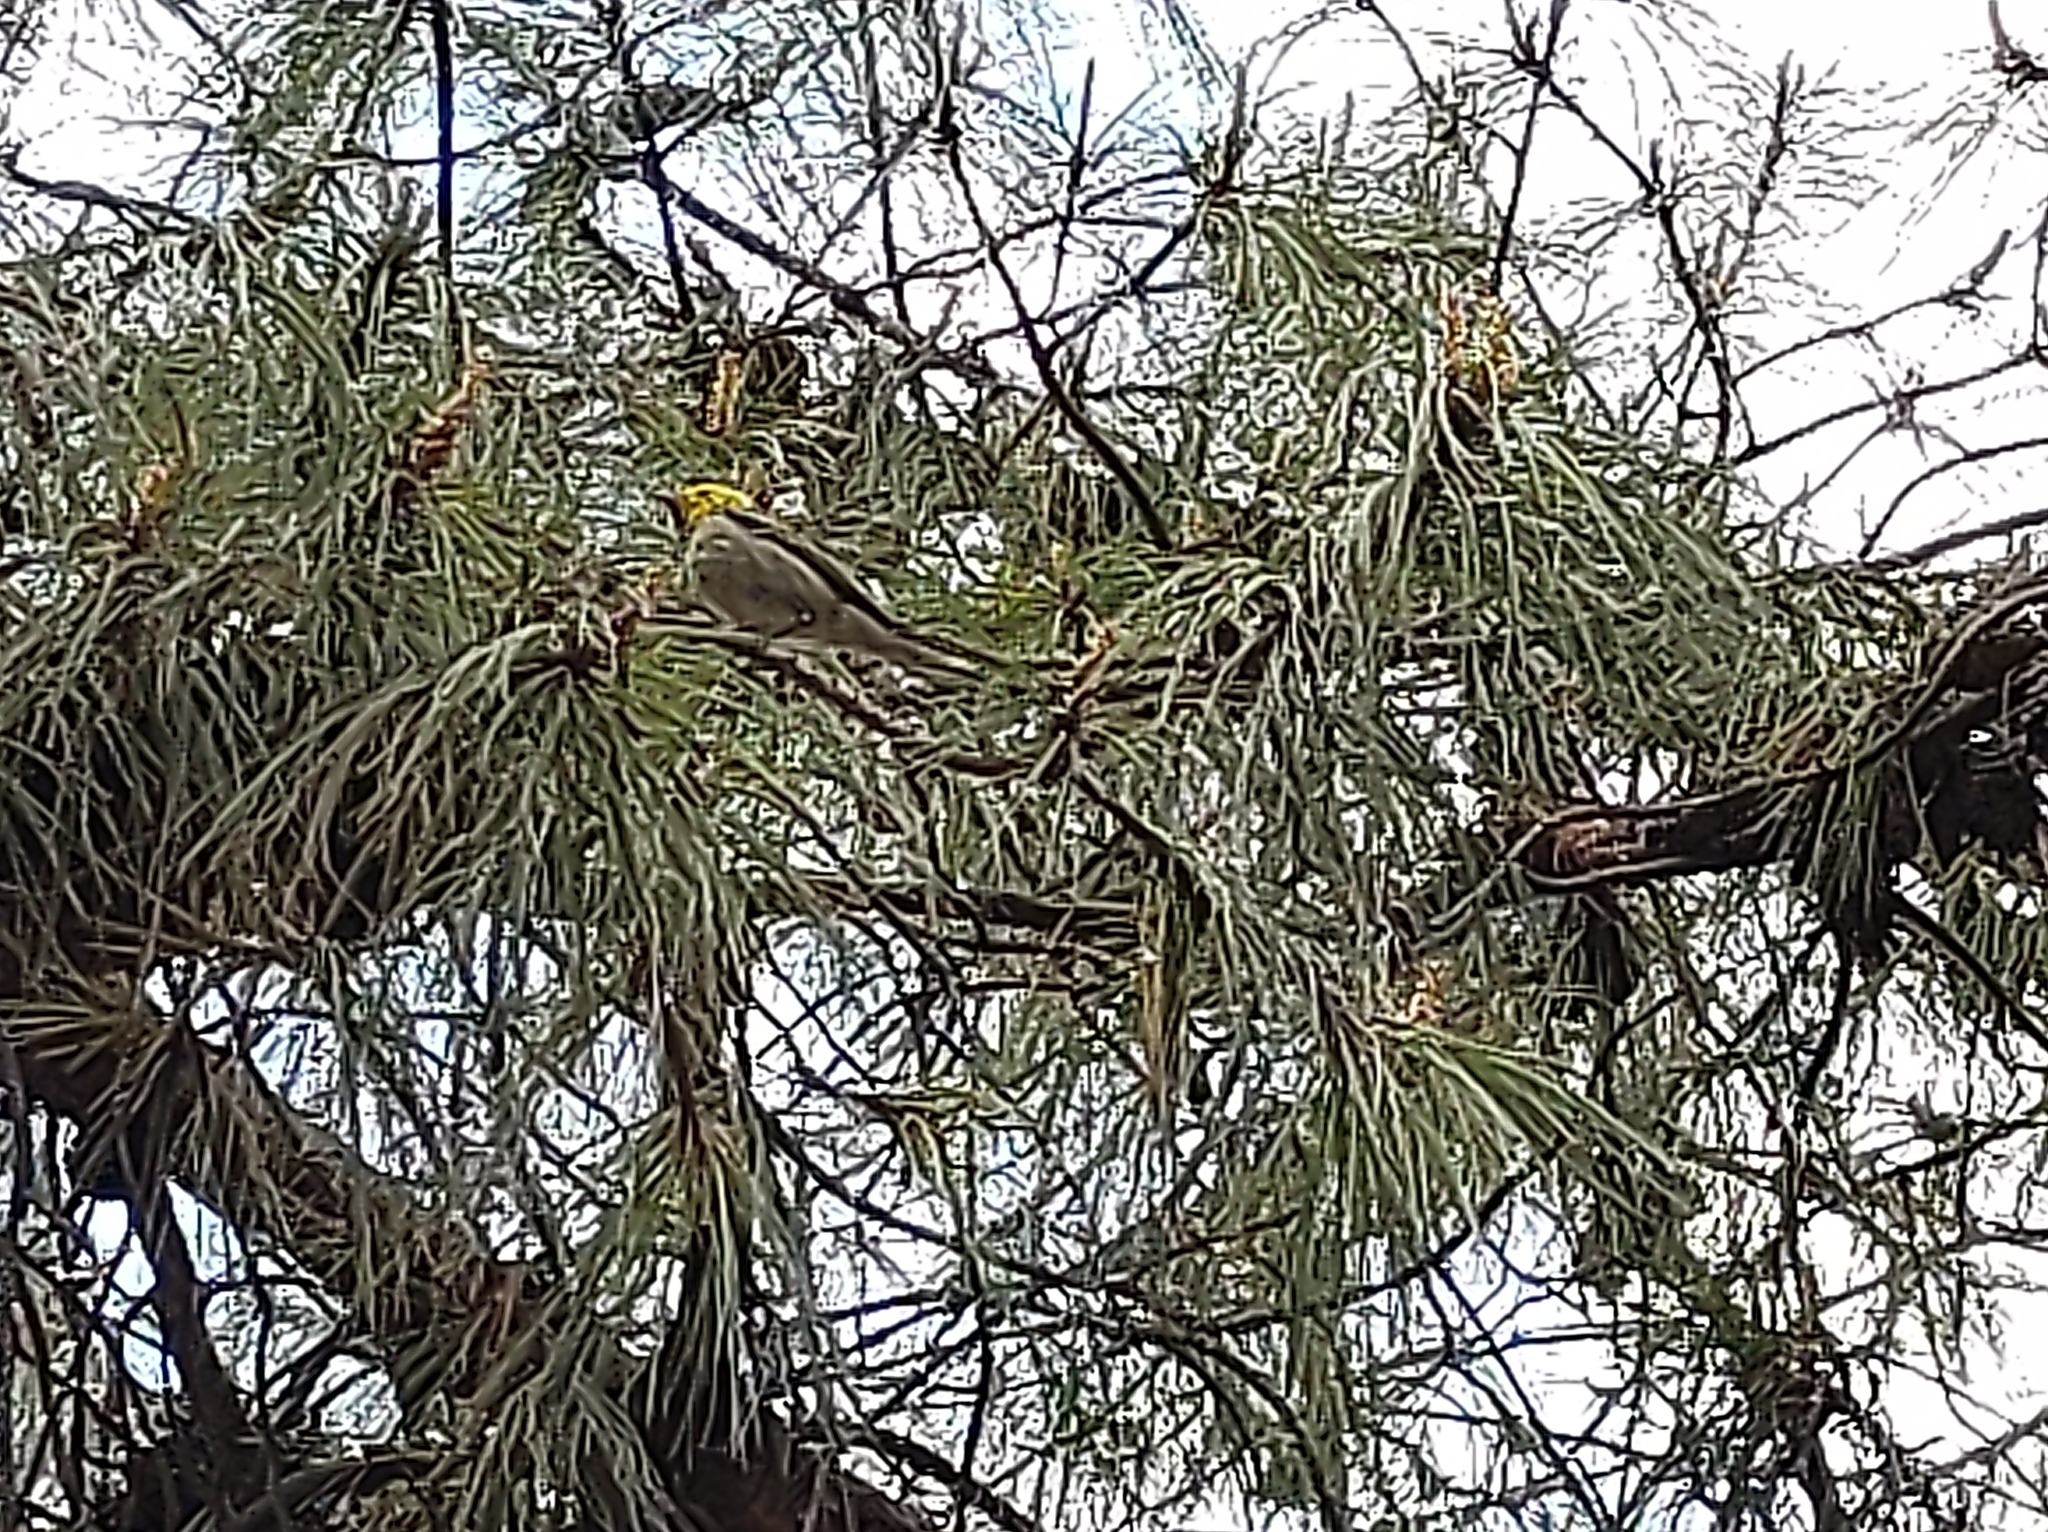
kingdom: Animalia
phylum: Chordata
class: Aves
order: Passeriformes
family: Parulidae
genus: Setophaga
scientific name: Setophaga occidentalis
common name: Hermit warbler
